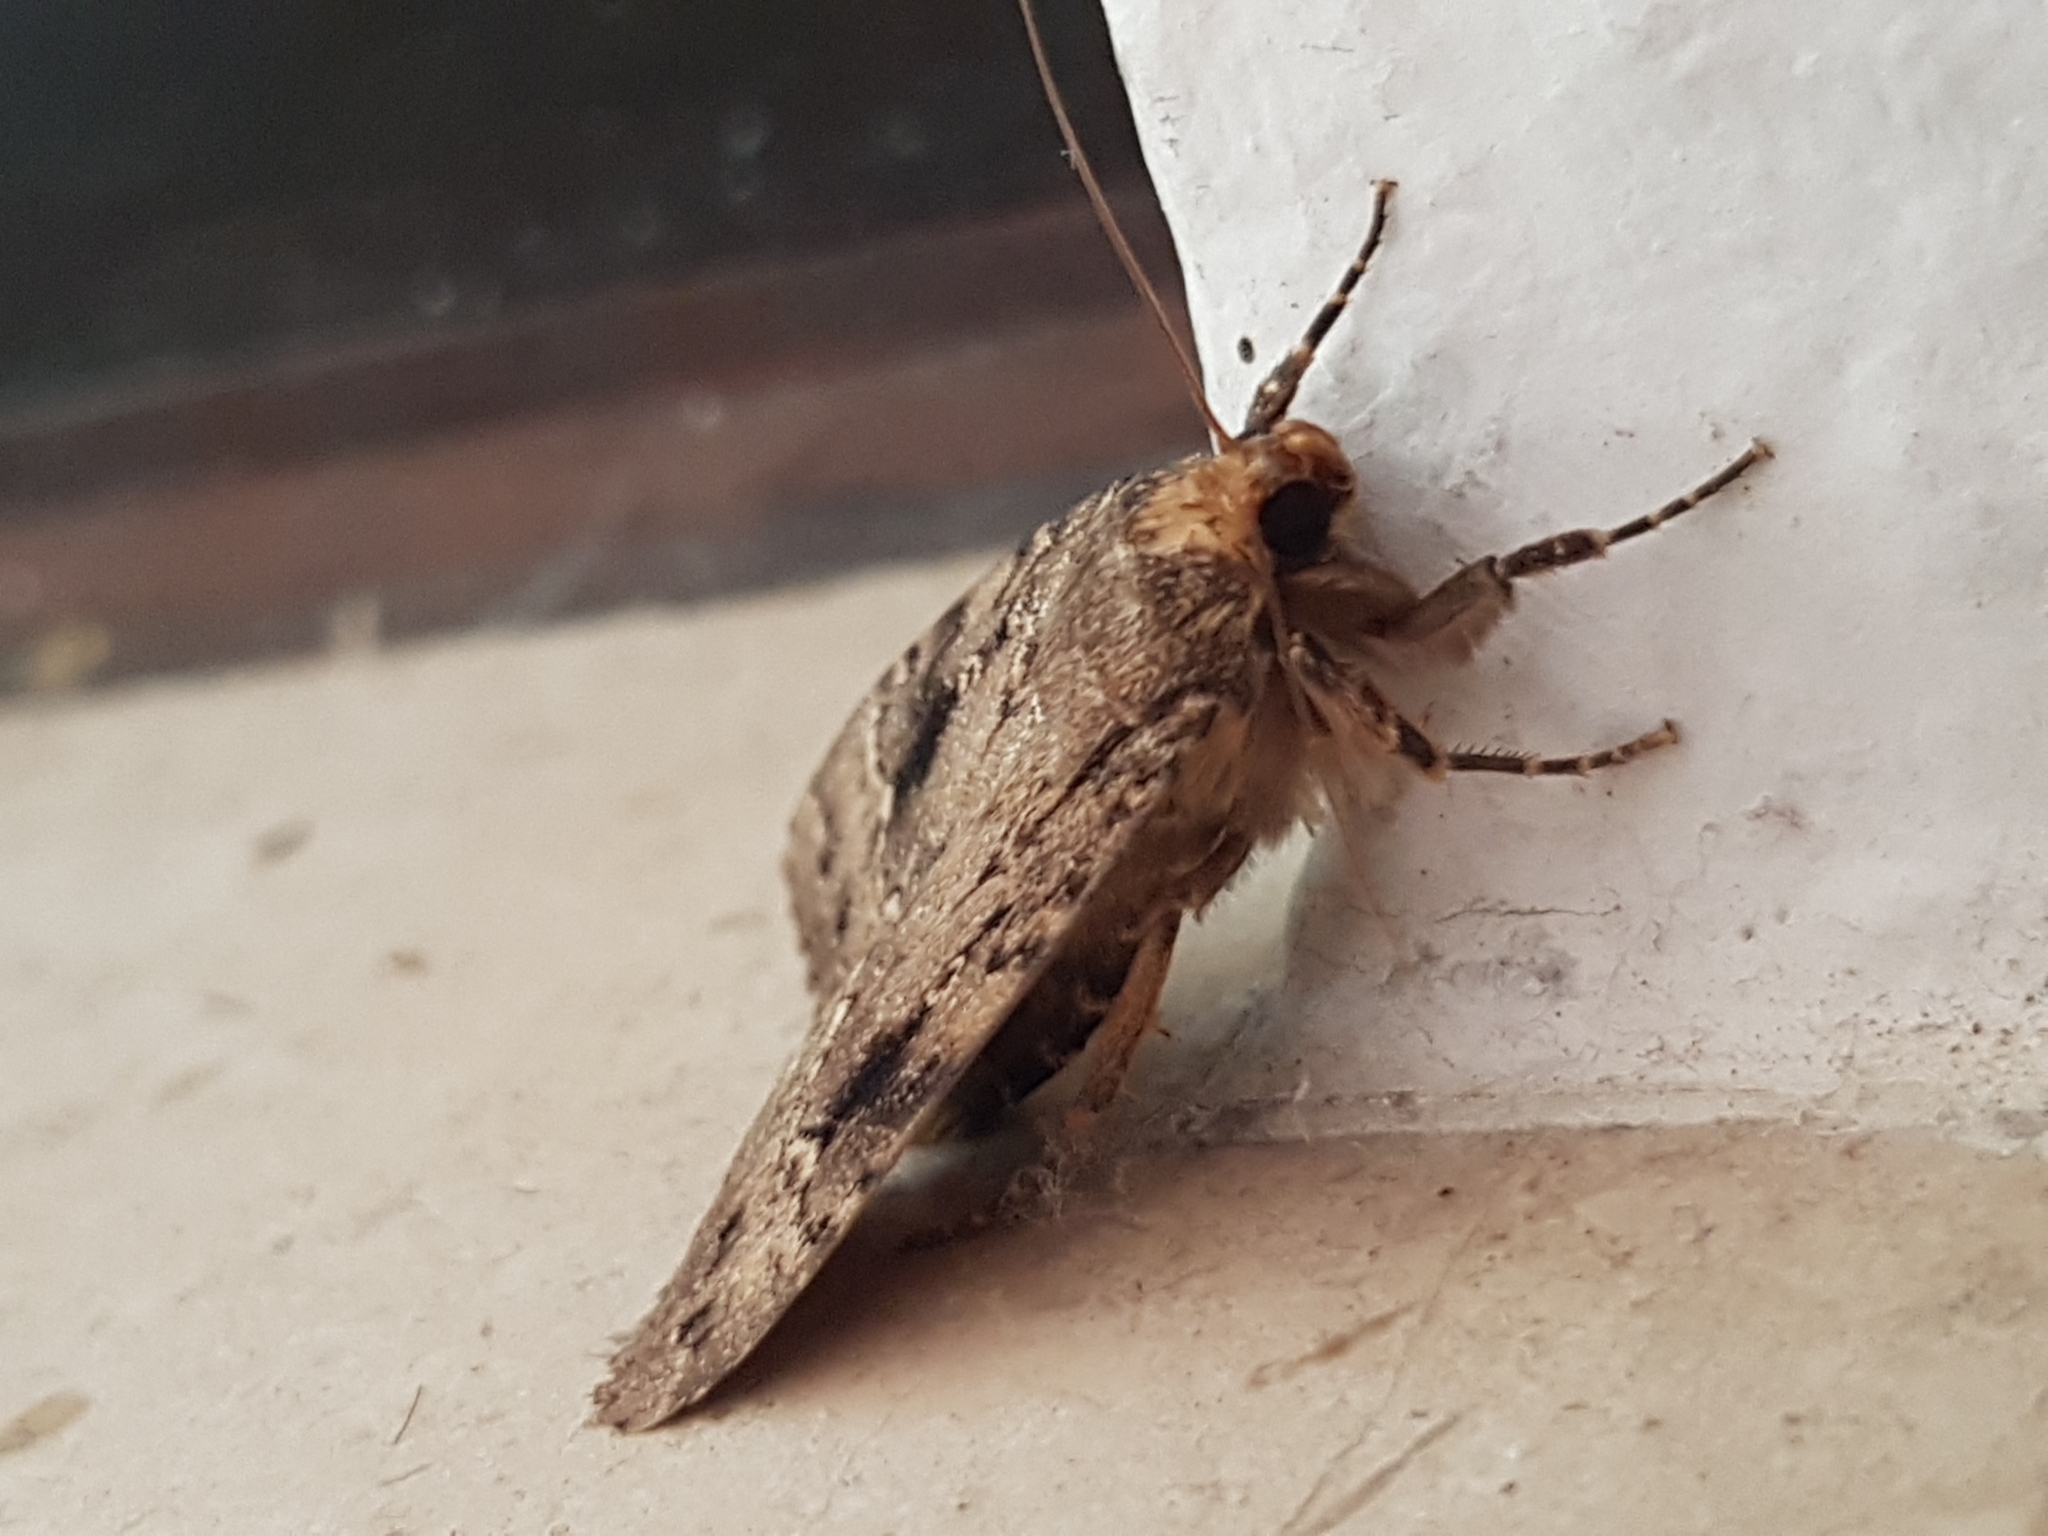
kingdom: Animalia
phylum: Arthropoda
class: Insecta
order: Lepidoptera
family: Noctuidae
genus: Amphipyra
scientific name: Amphipyra pyramidea
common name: Copper underwing
